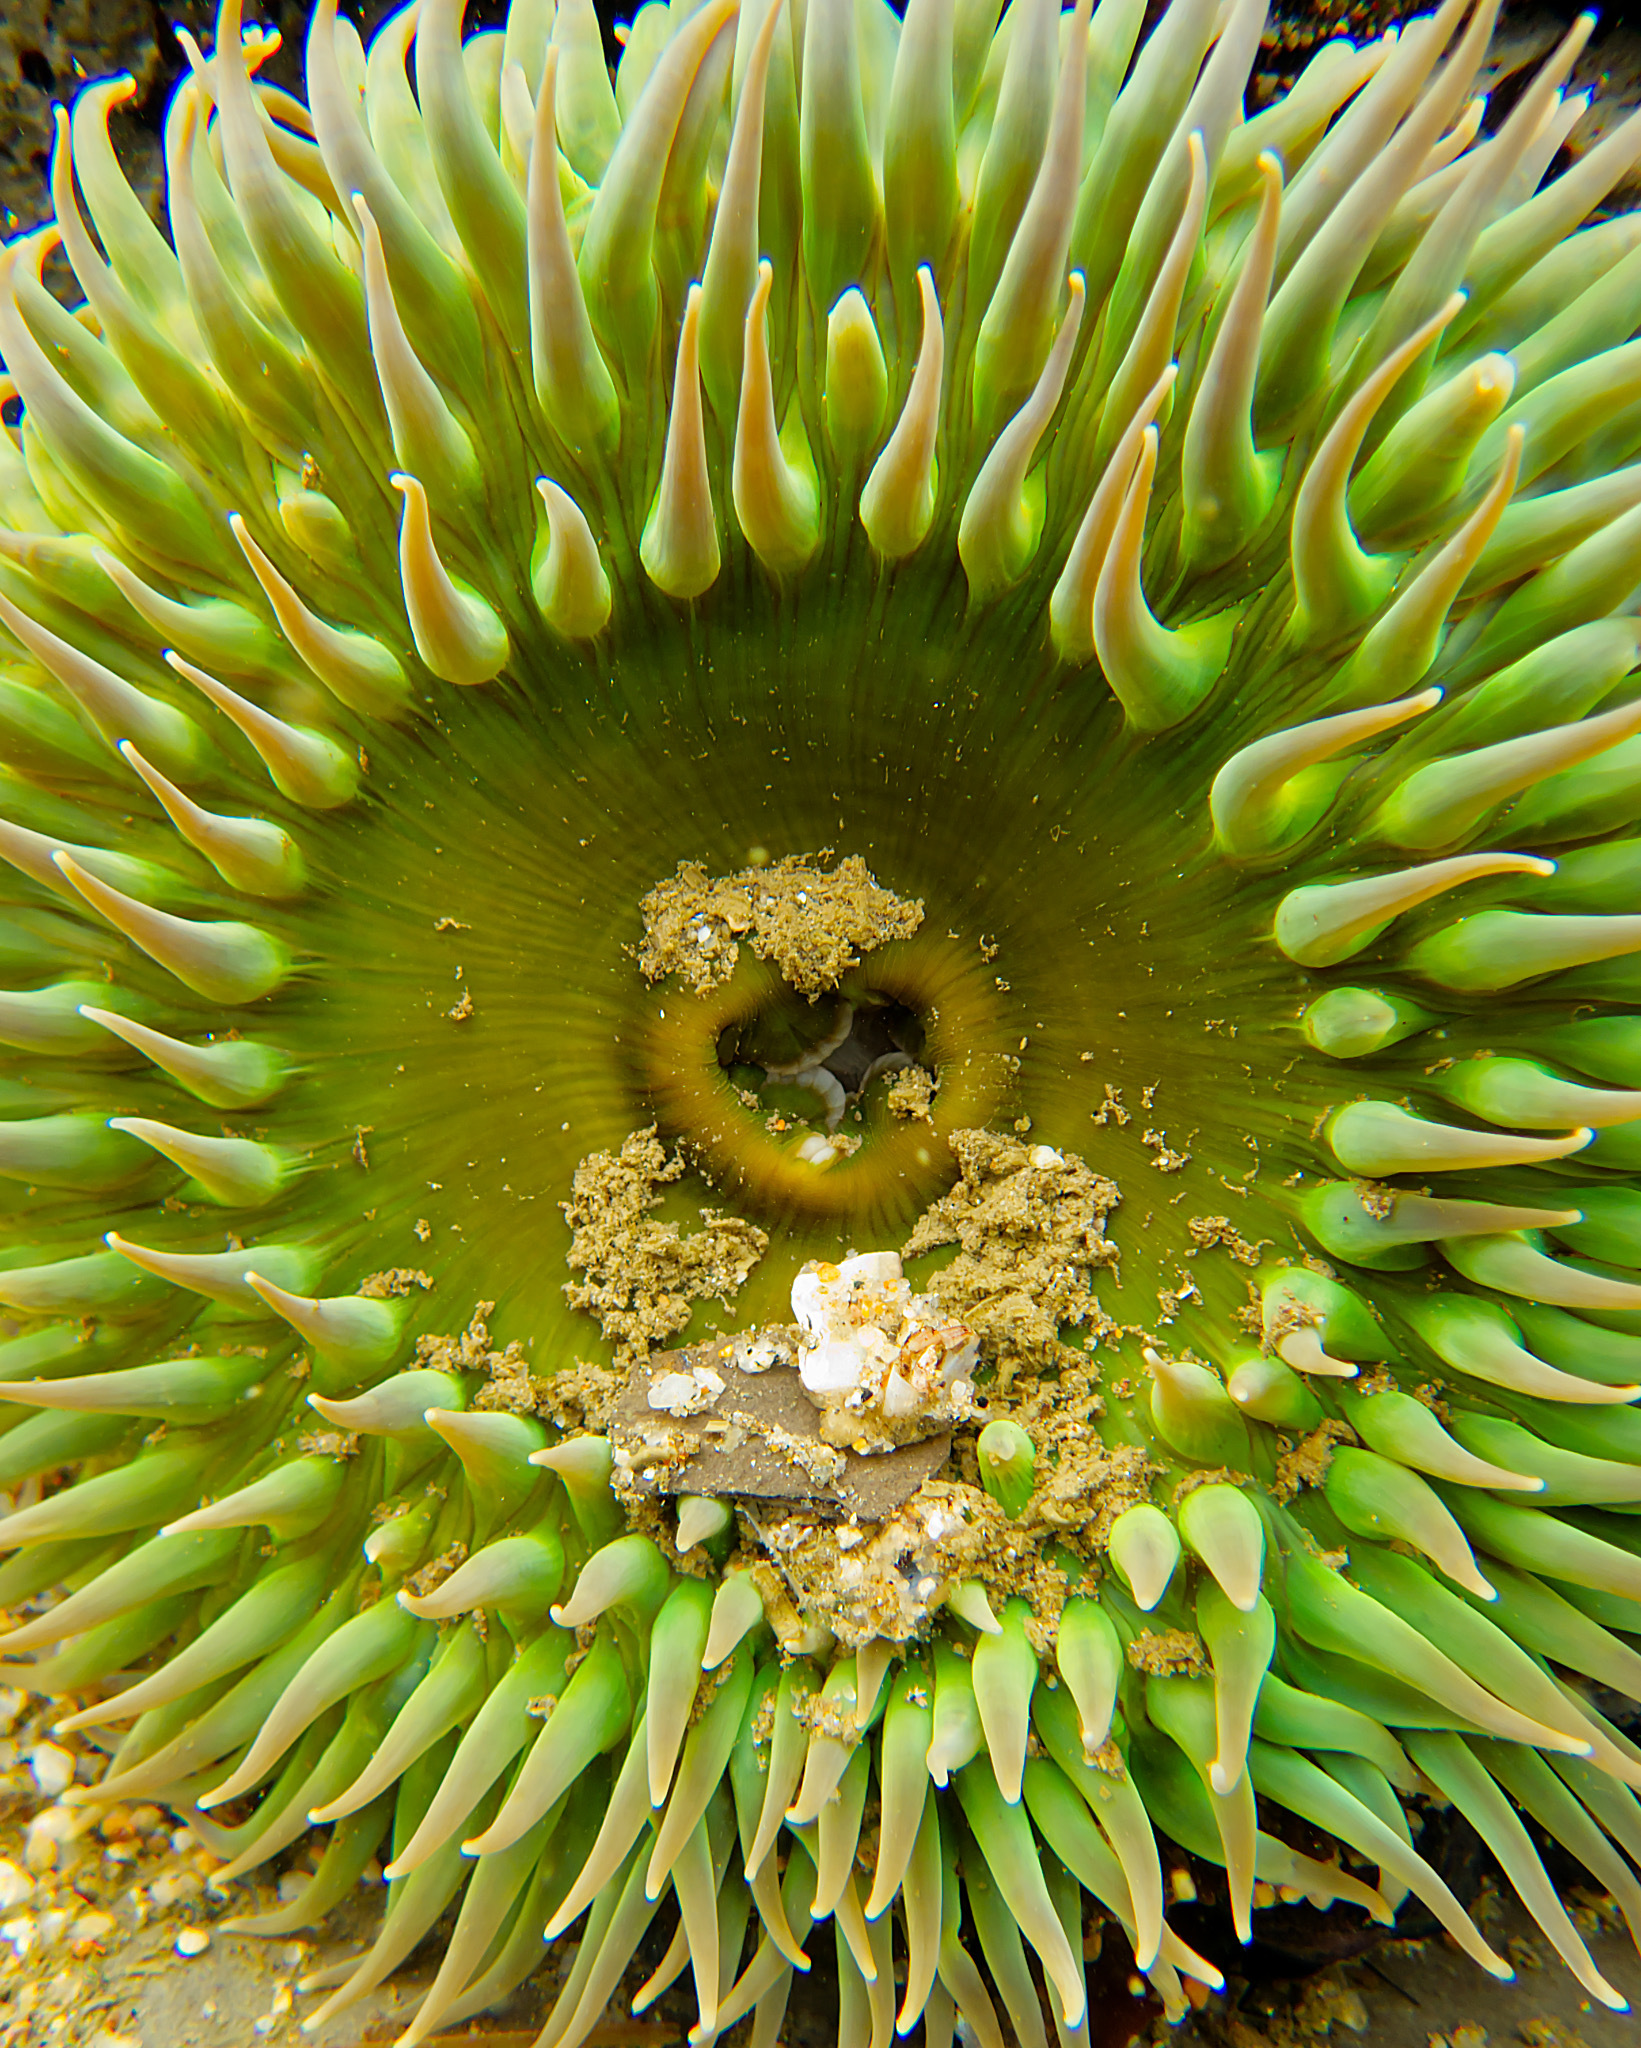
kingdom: Animalia
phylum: Cnidaria
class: Anthozoa
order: Actiniaria
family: Actiniidae
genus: Anthopleura
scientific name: Anthopleura xanthogrammica
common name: Giant green anemone
